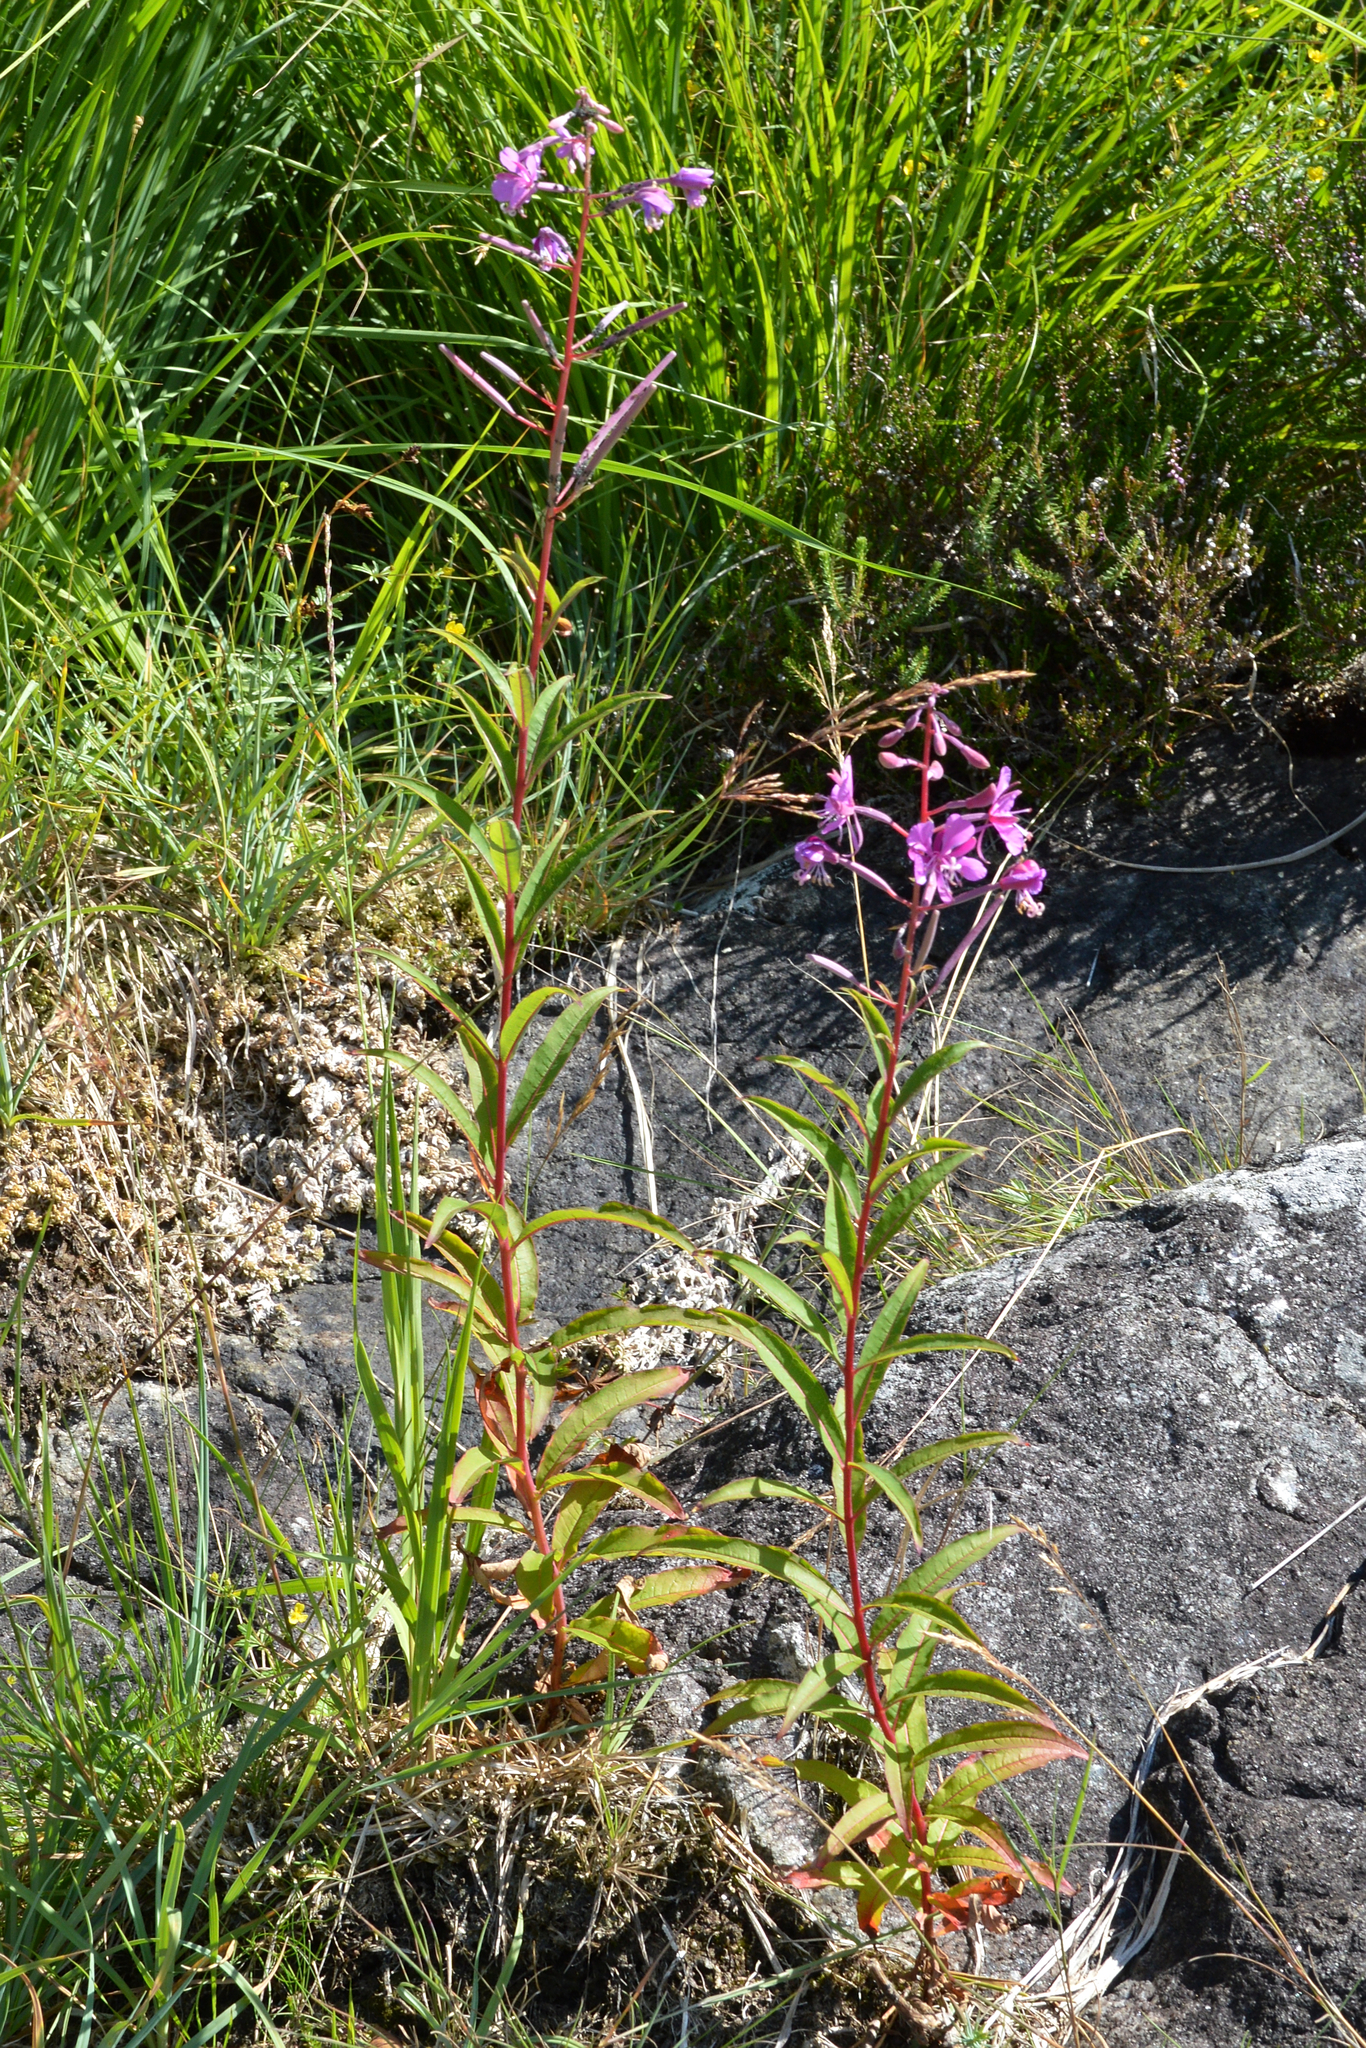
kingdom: Plantae
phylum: Tracheophyta
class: Magnoliopsida
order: Myrtales
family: Onagraceae
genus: Chamaenerion
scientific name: Chamaenerion angustifolium
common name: Fireweed
